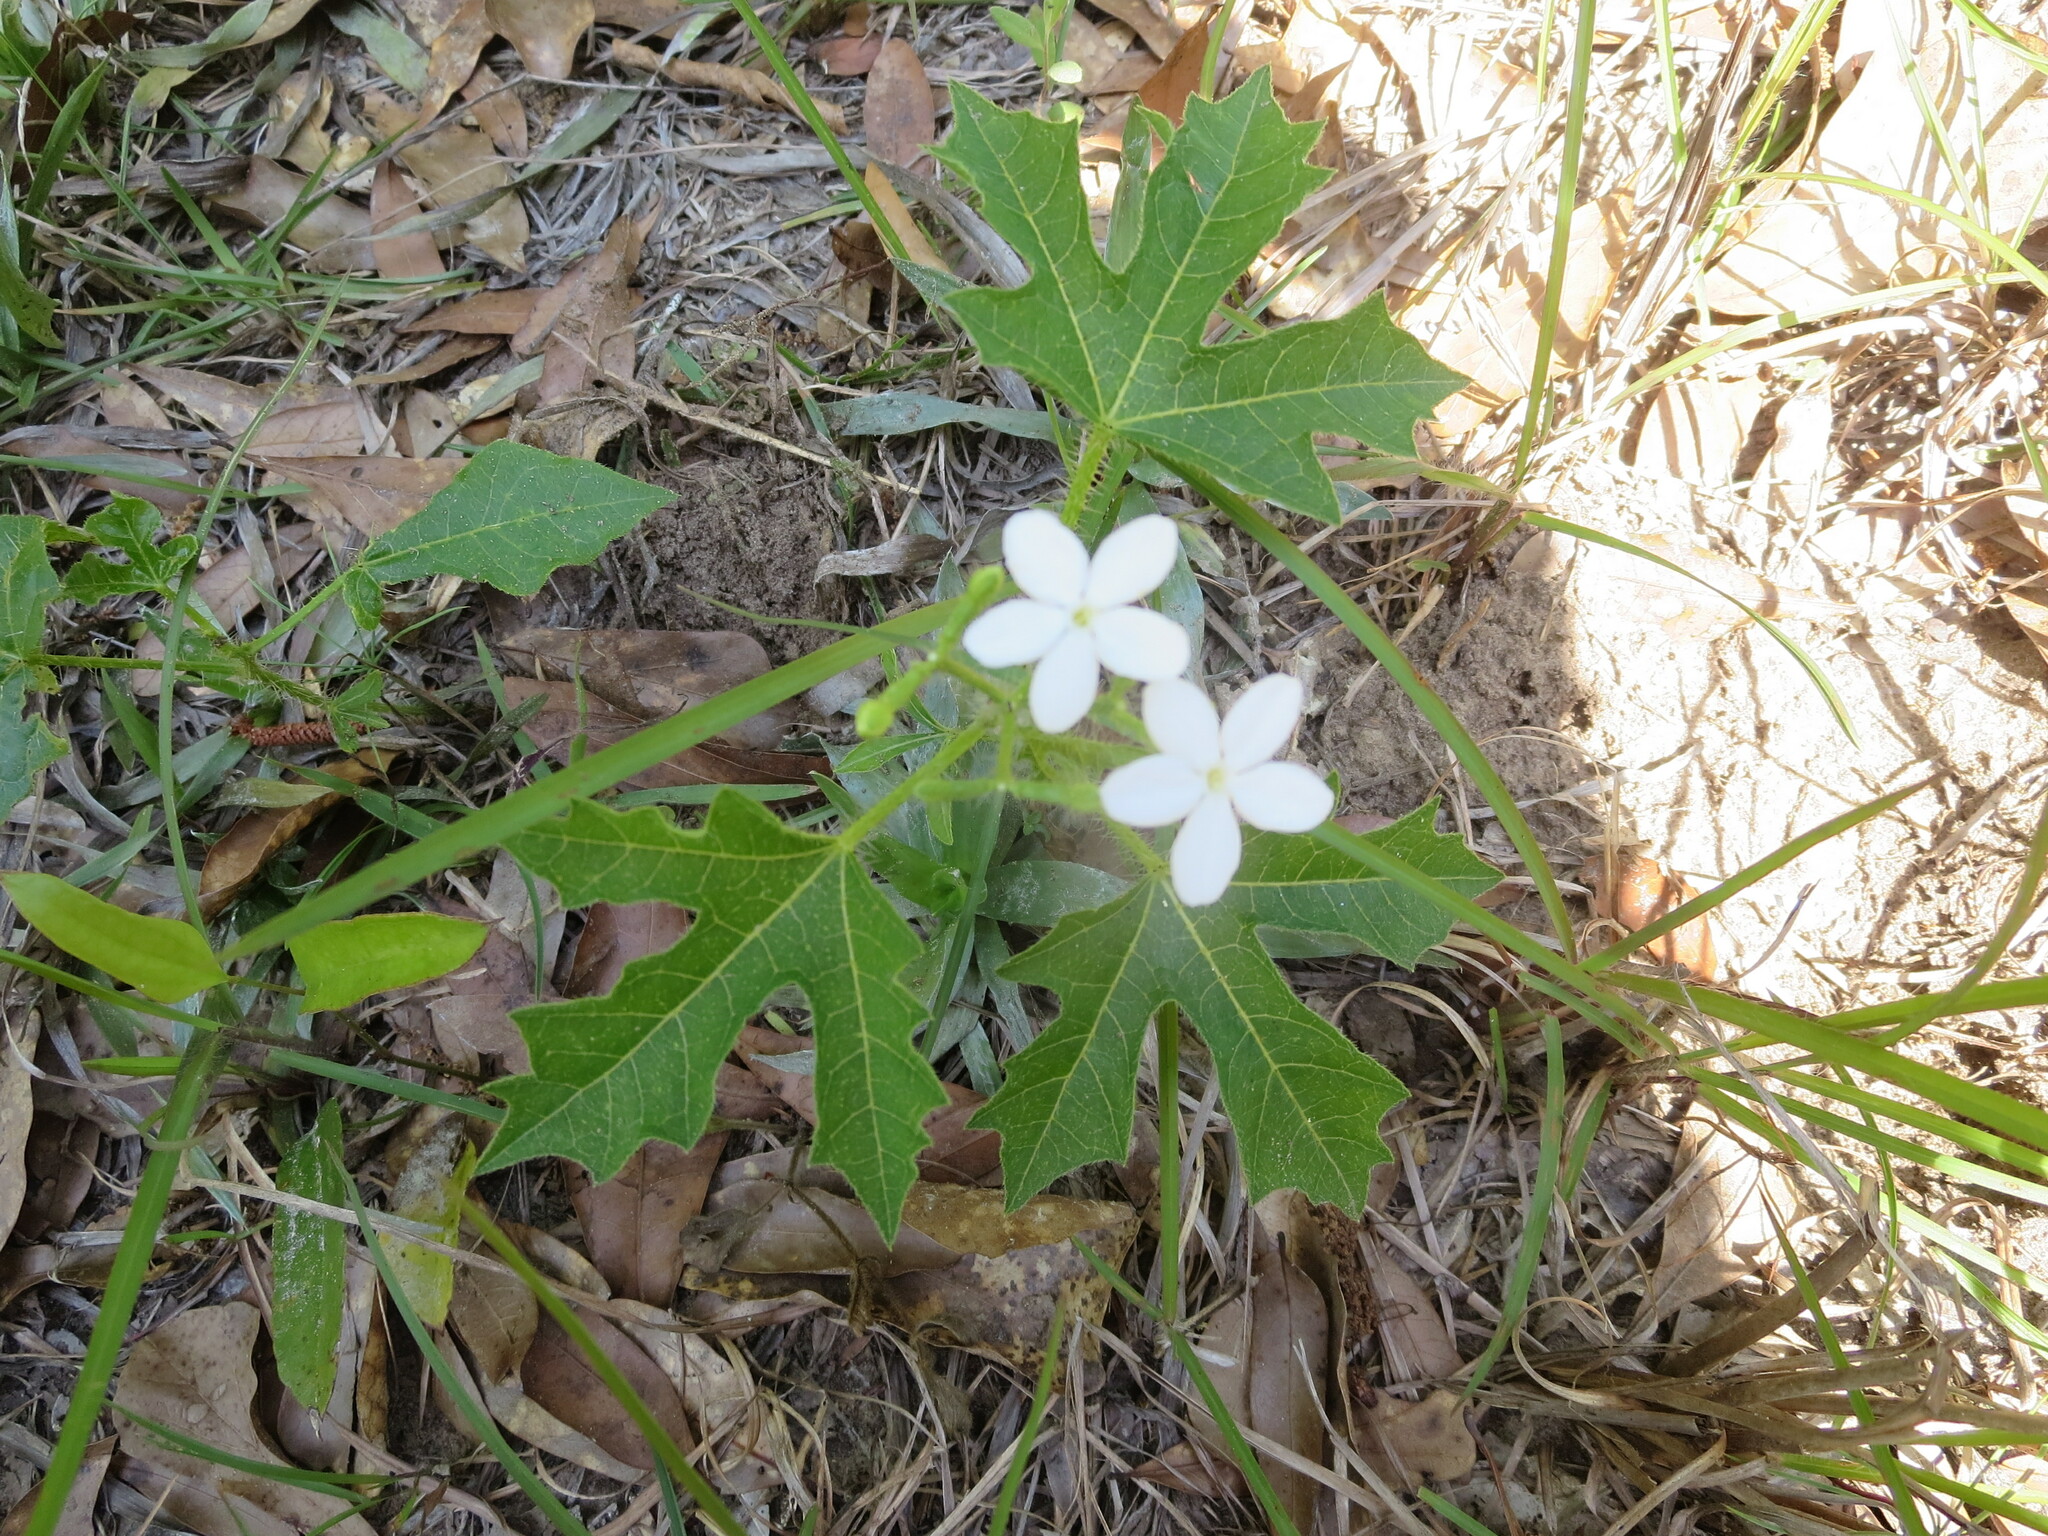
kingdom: Plantae
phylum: Tracheophyta
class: Magnoliopsida
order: Malpighiales
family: Euphorbiaceae
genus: Cnidoscolus
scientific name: Cnidoscolus stimulosus
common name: Bull-nettle
